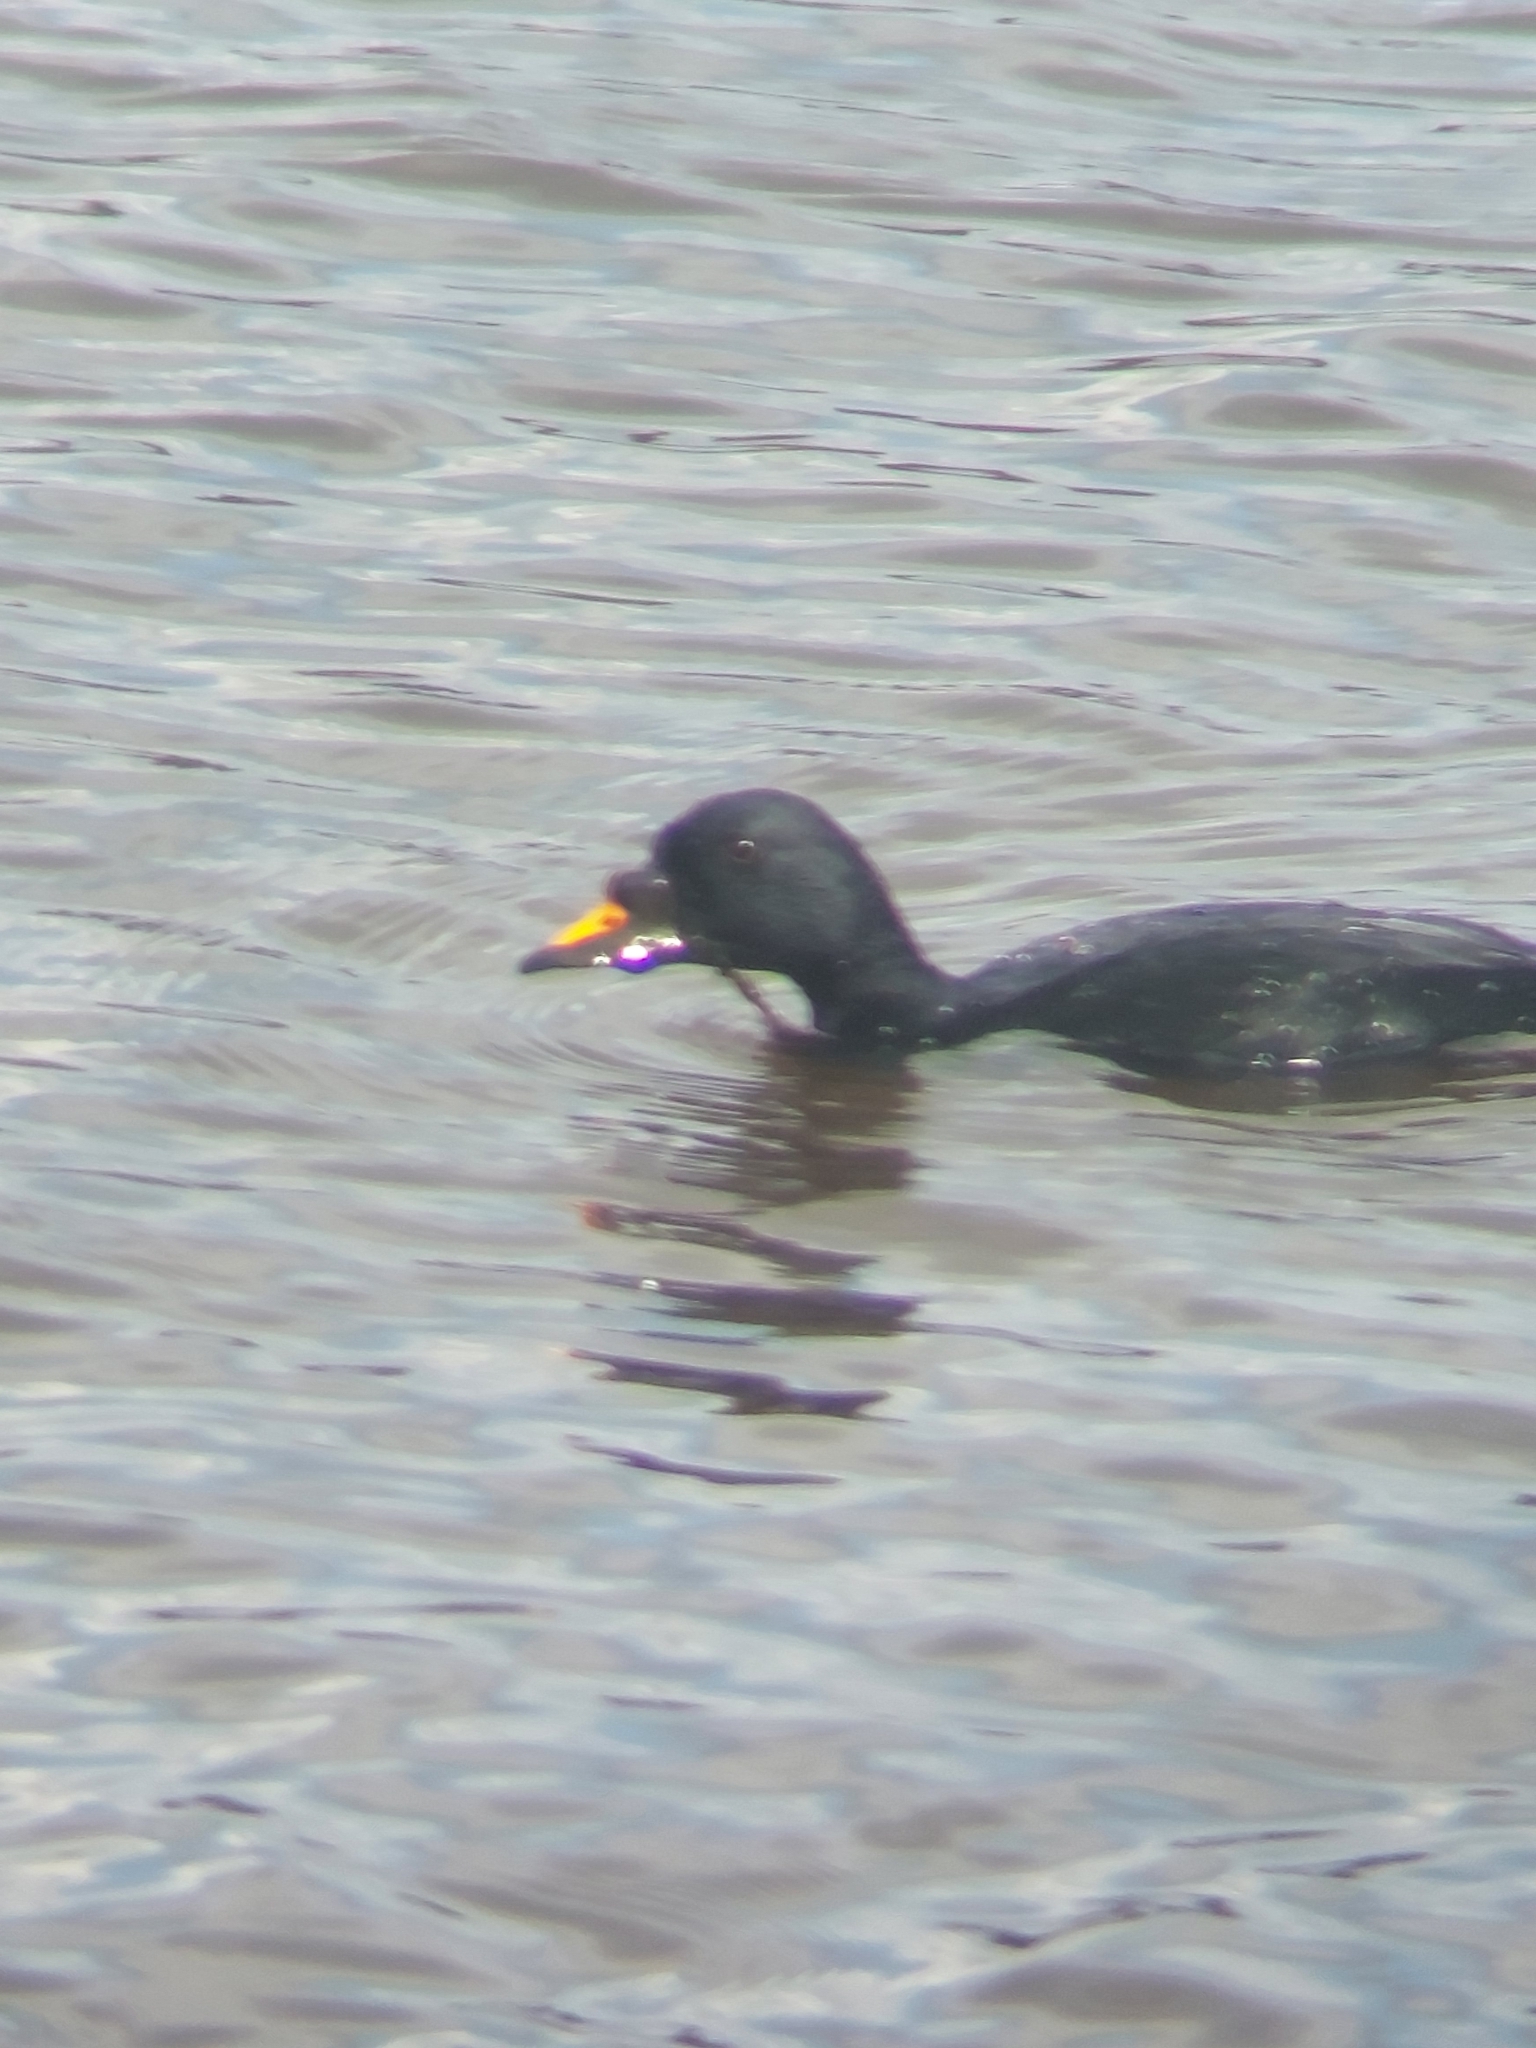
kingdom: Animalia
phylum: Chordata
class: Aves
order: Anseriformes
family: Anatidae
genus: Melanitta
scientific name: Melanitta nigra
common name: Common scoter
